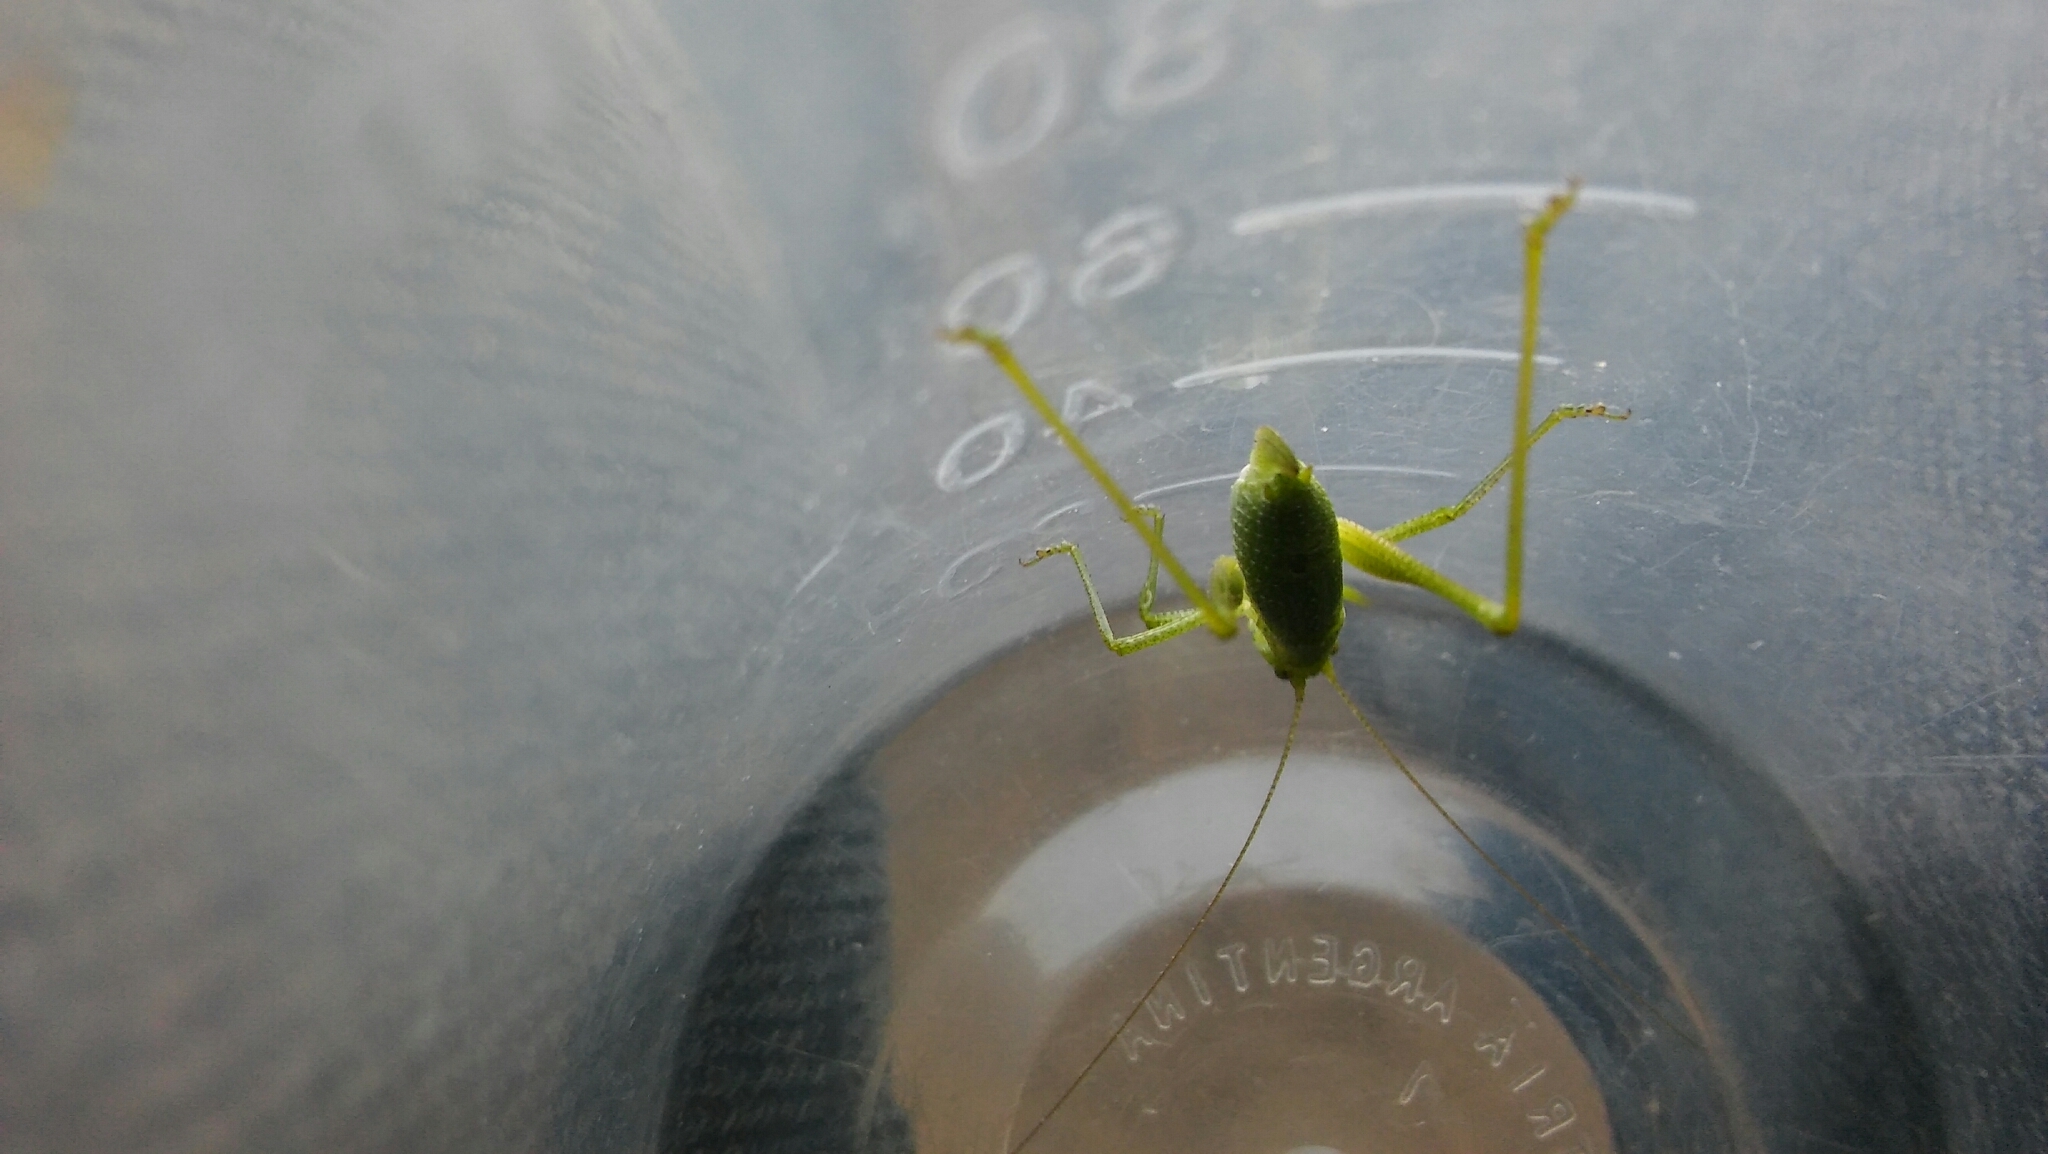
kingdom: Animalia
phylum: Arthropoda
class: Insecta
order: Orthoptera
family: Tettigoniidae
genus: Anisophya
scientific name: Anisophya punctinervis
